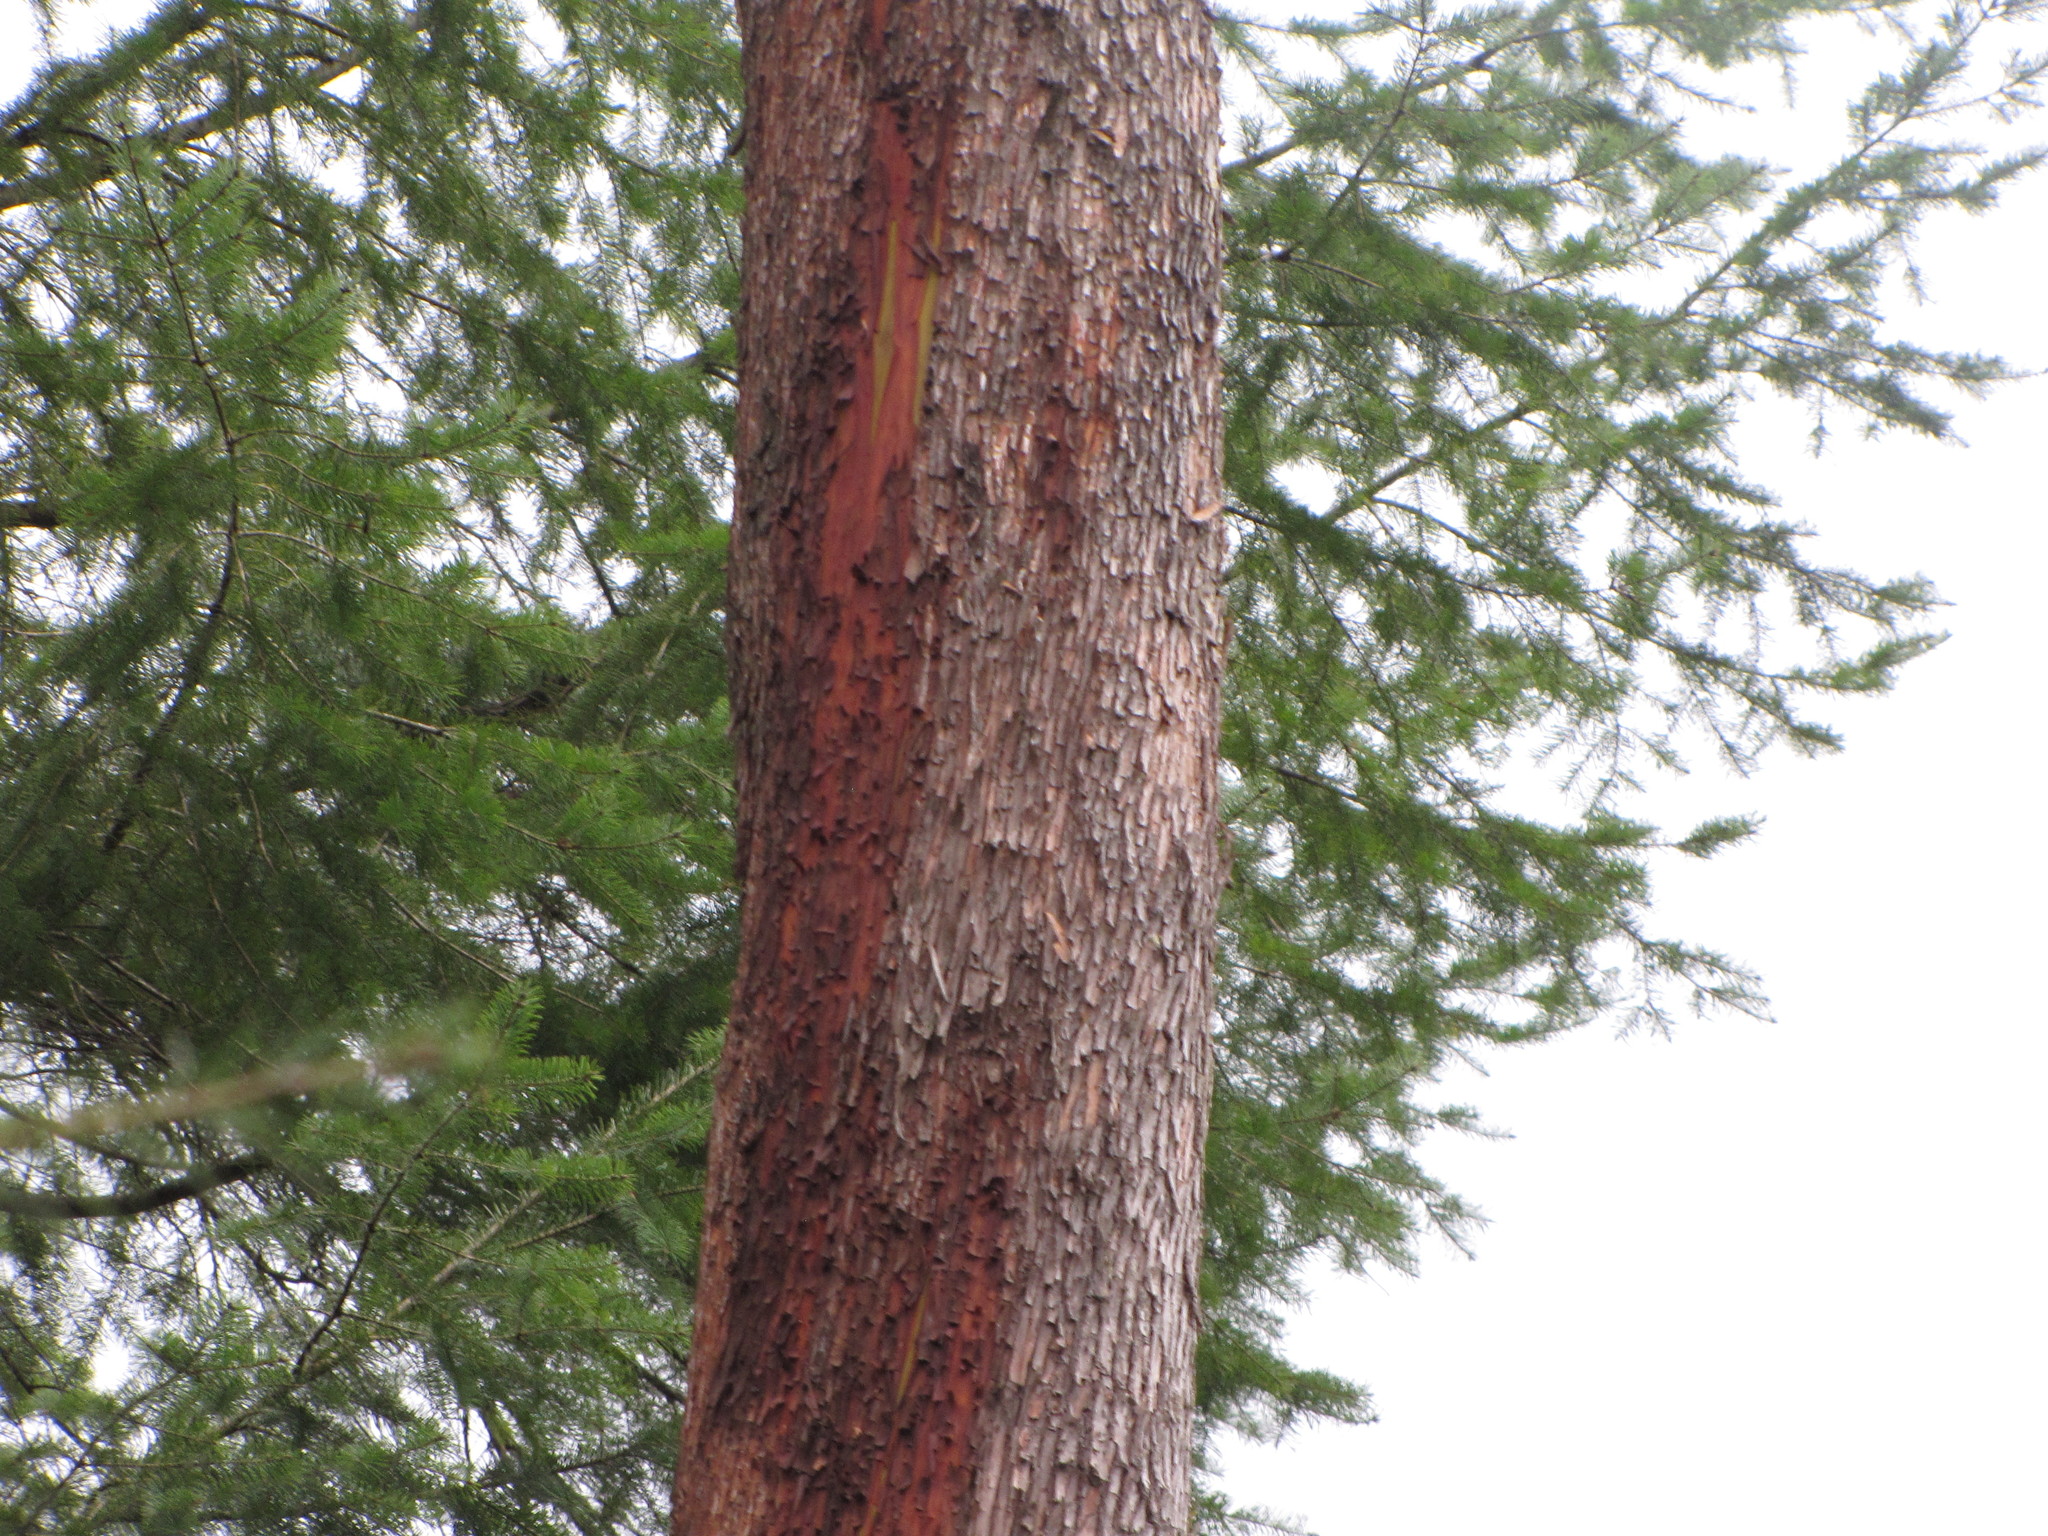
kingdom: Plantae
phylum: Tracheophyta
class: Magnoliopsida
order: Ericales
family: Ericaceae
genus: Arbutus
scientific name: Arbutus menziesii
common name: Pacific madrone
